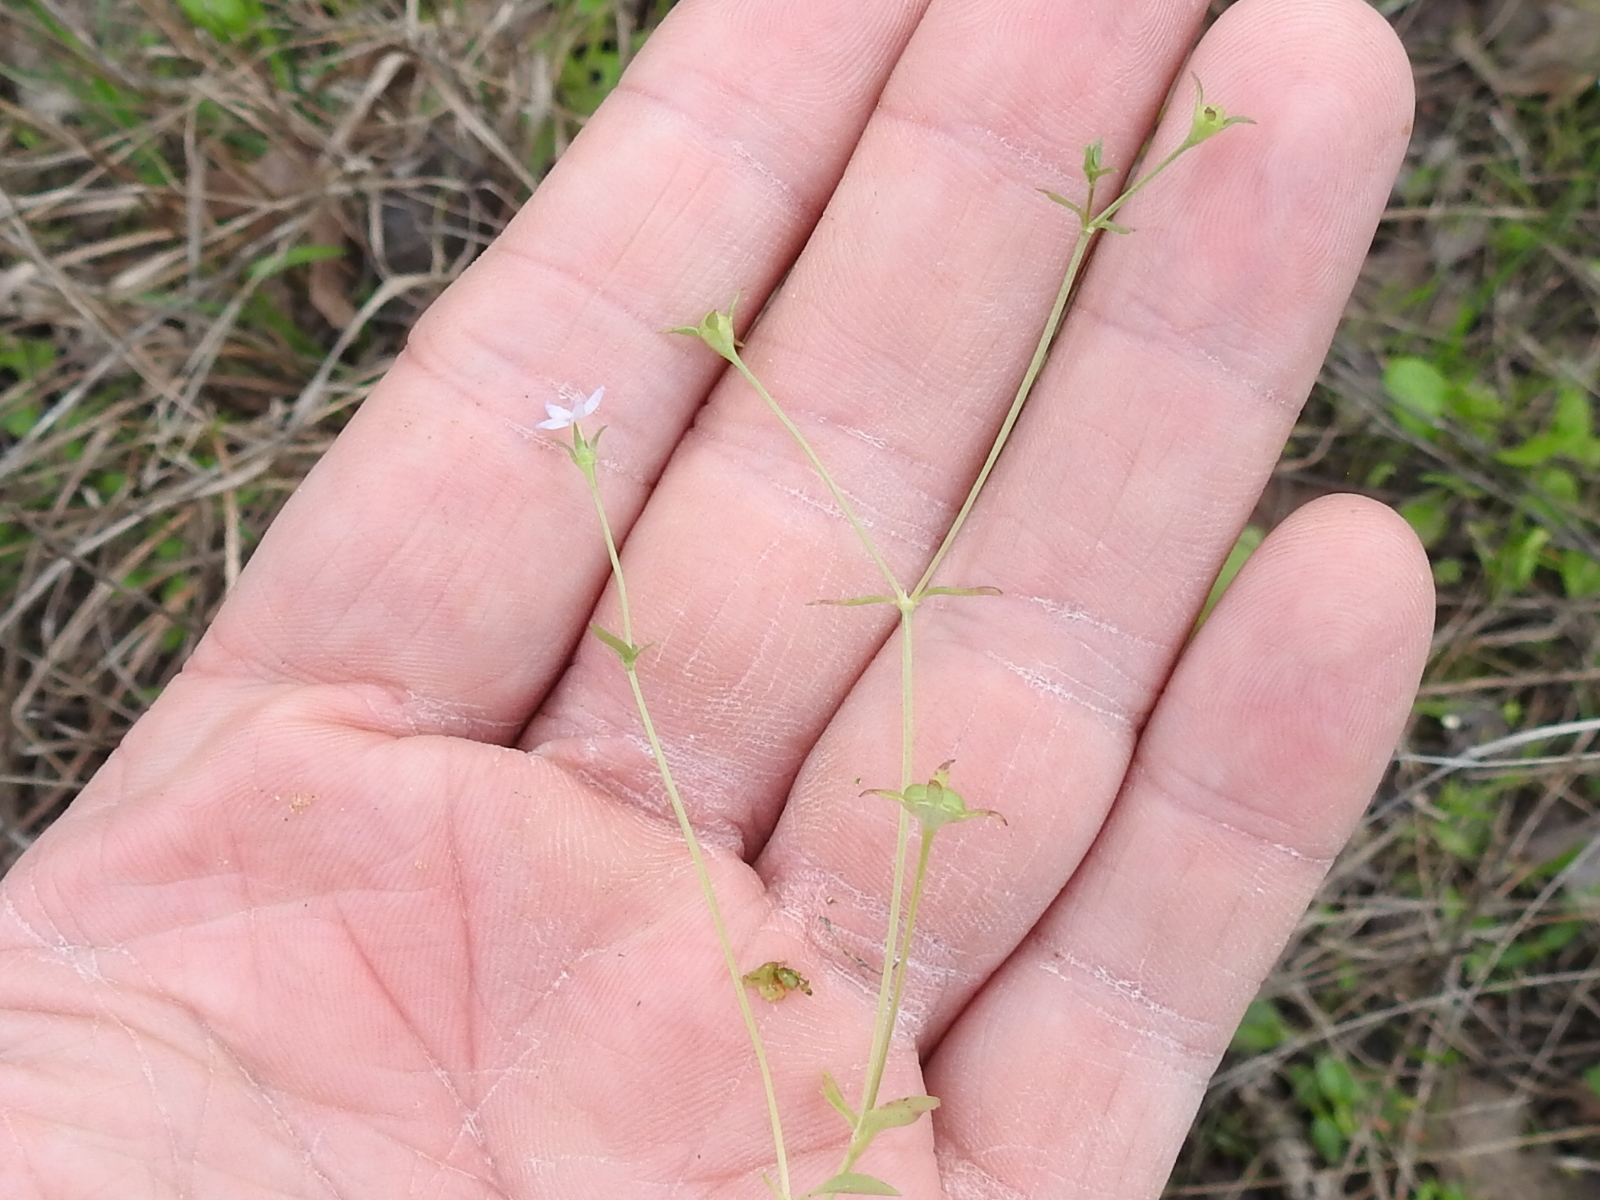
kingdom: Plantae
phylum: Tracheophyta
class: Magnoliopsida
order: Gentianales
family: Rubiaceae
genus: Houstonia
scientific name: Houstonia pusilla
